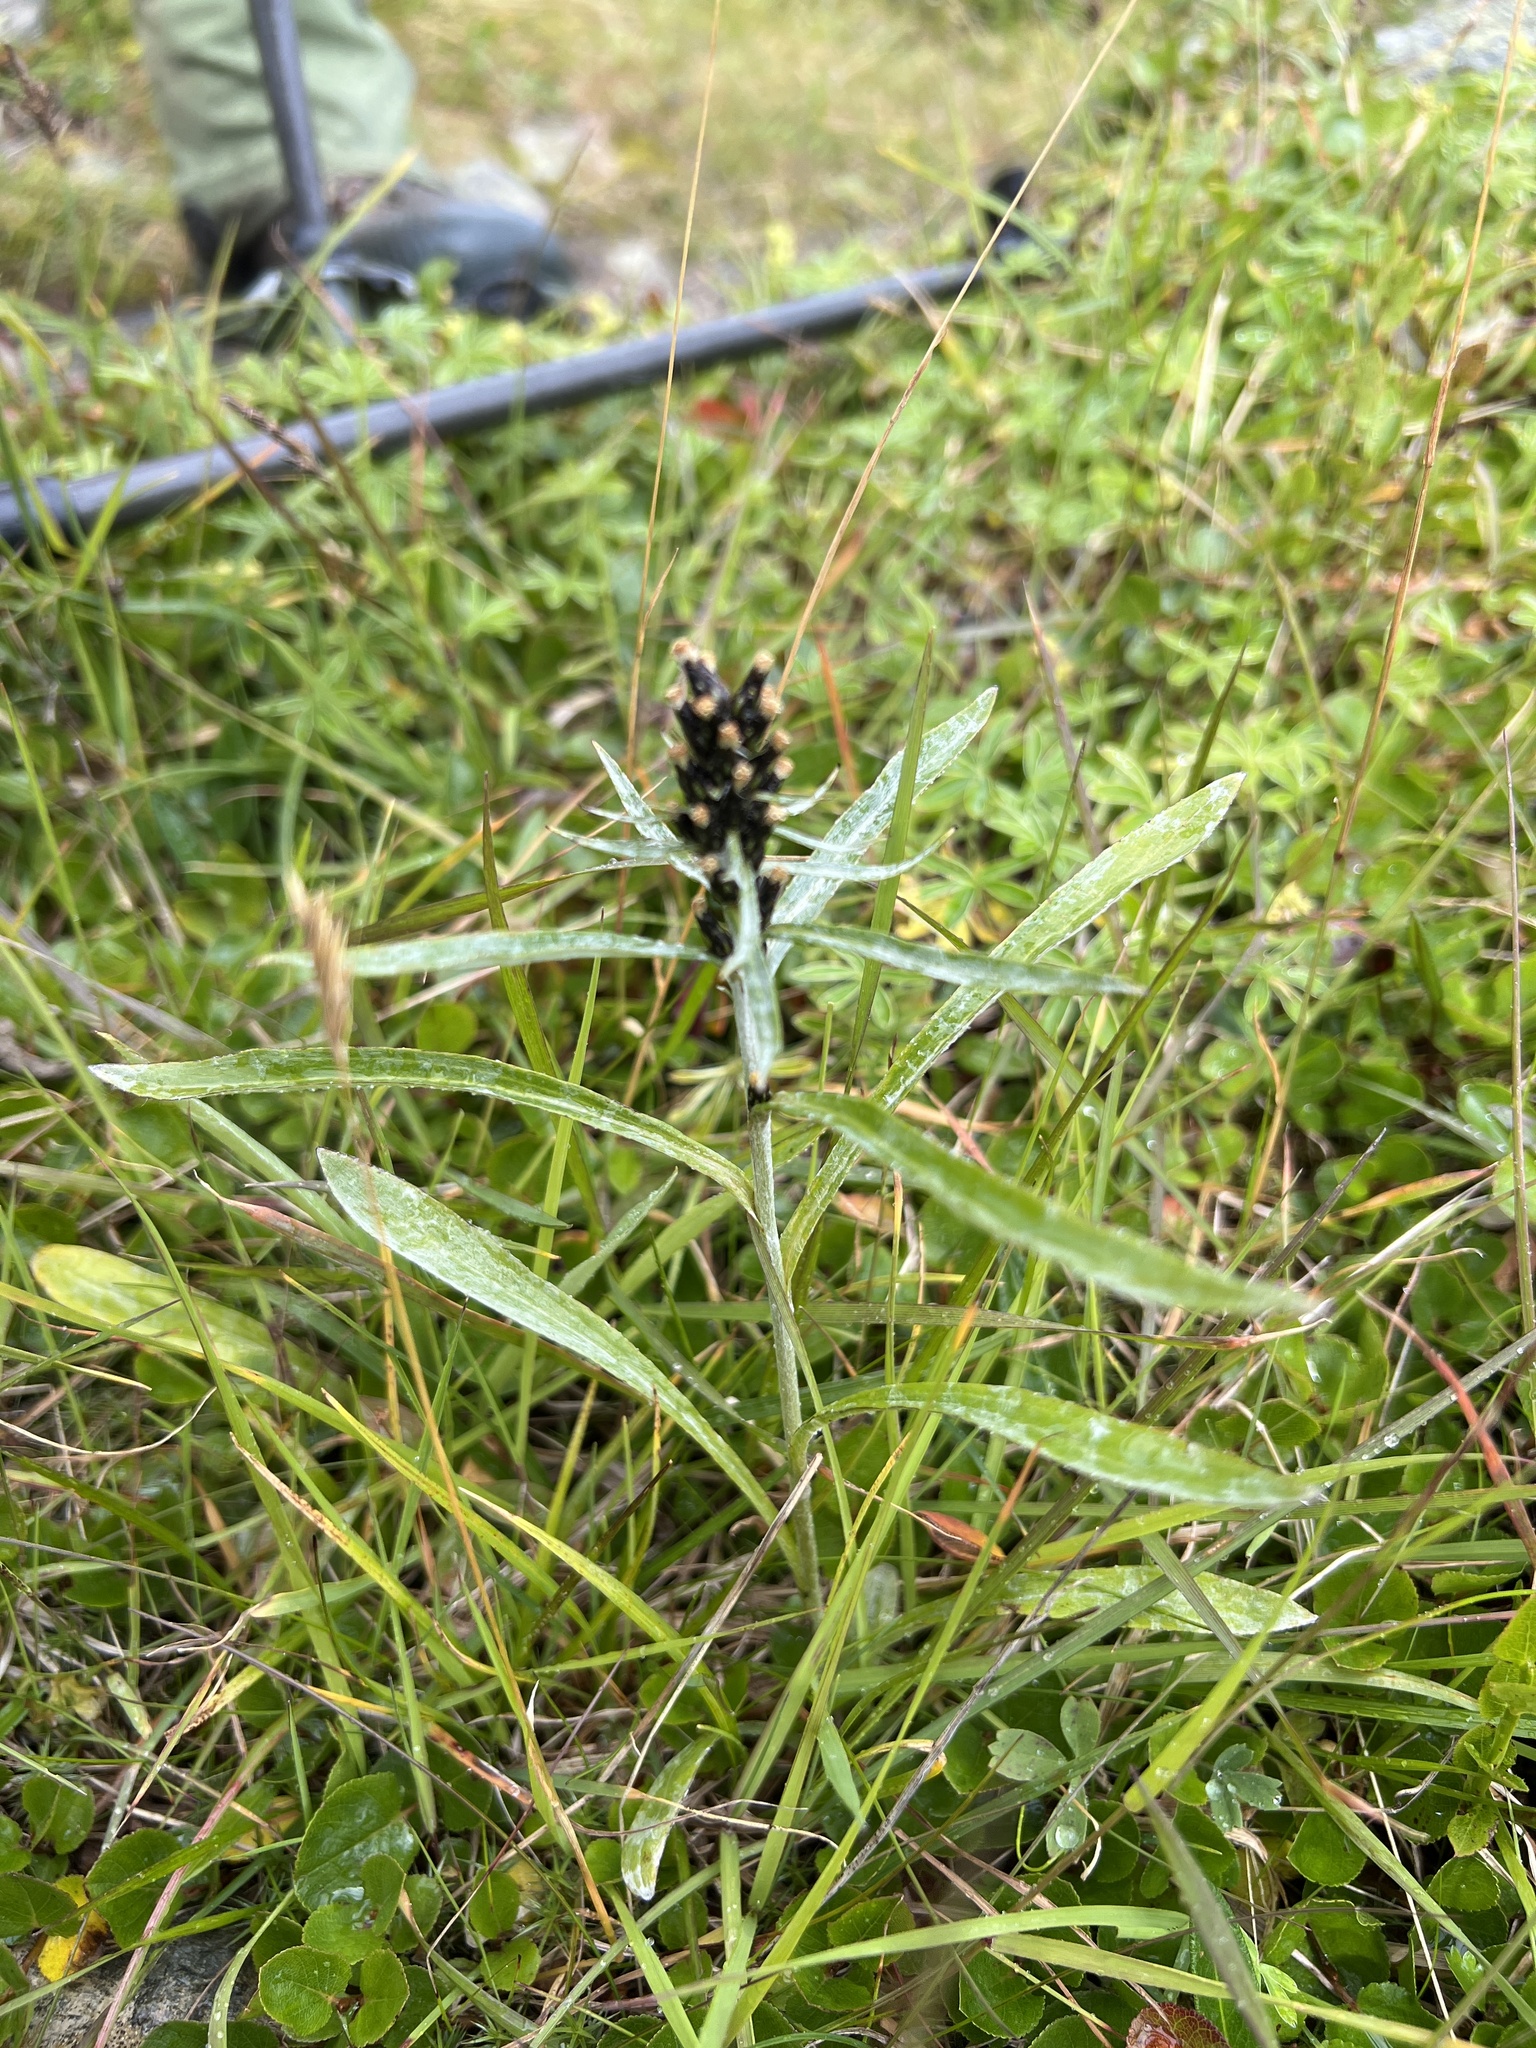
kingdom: Plantae
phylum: Tracheophyta
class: Magnoliopsida
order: Asterales
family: Asteraceae
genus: Omalotheca
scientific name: Omalotheca norvegica
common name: Norwegian arctic-cudweed
